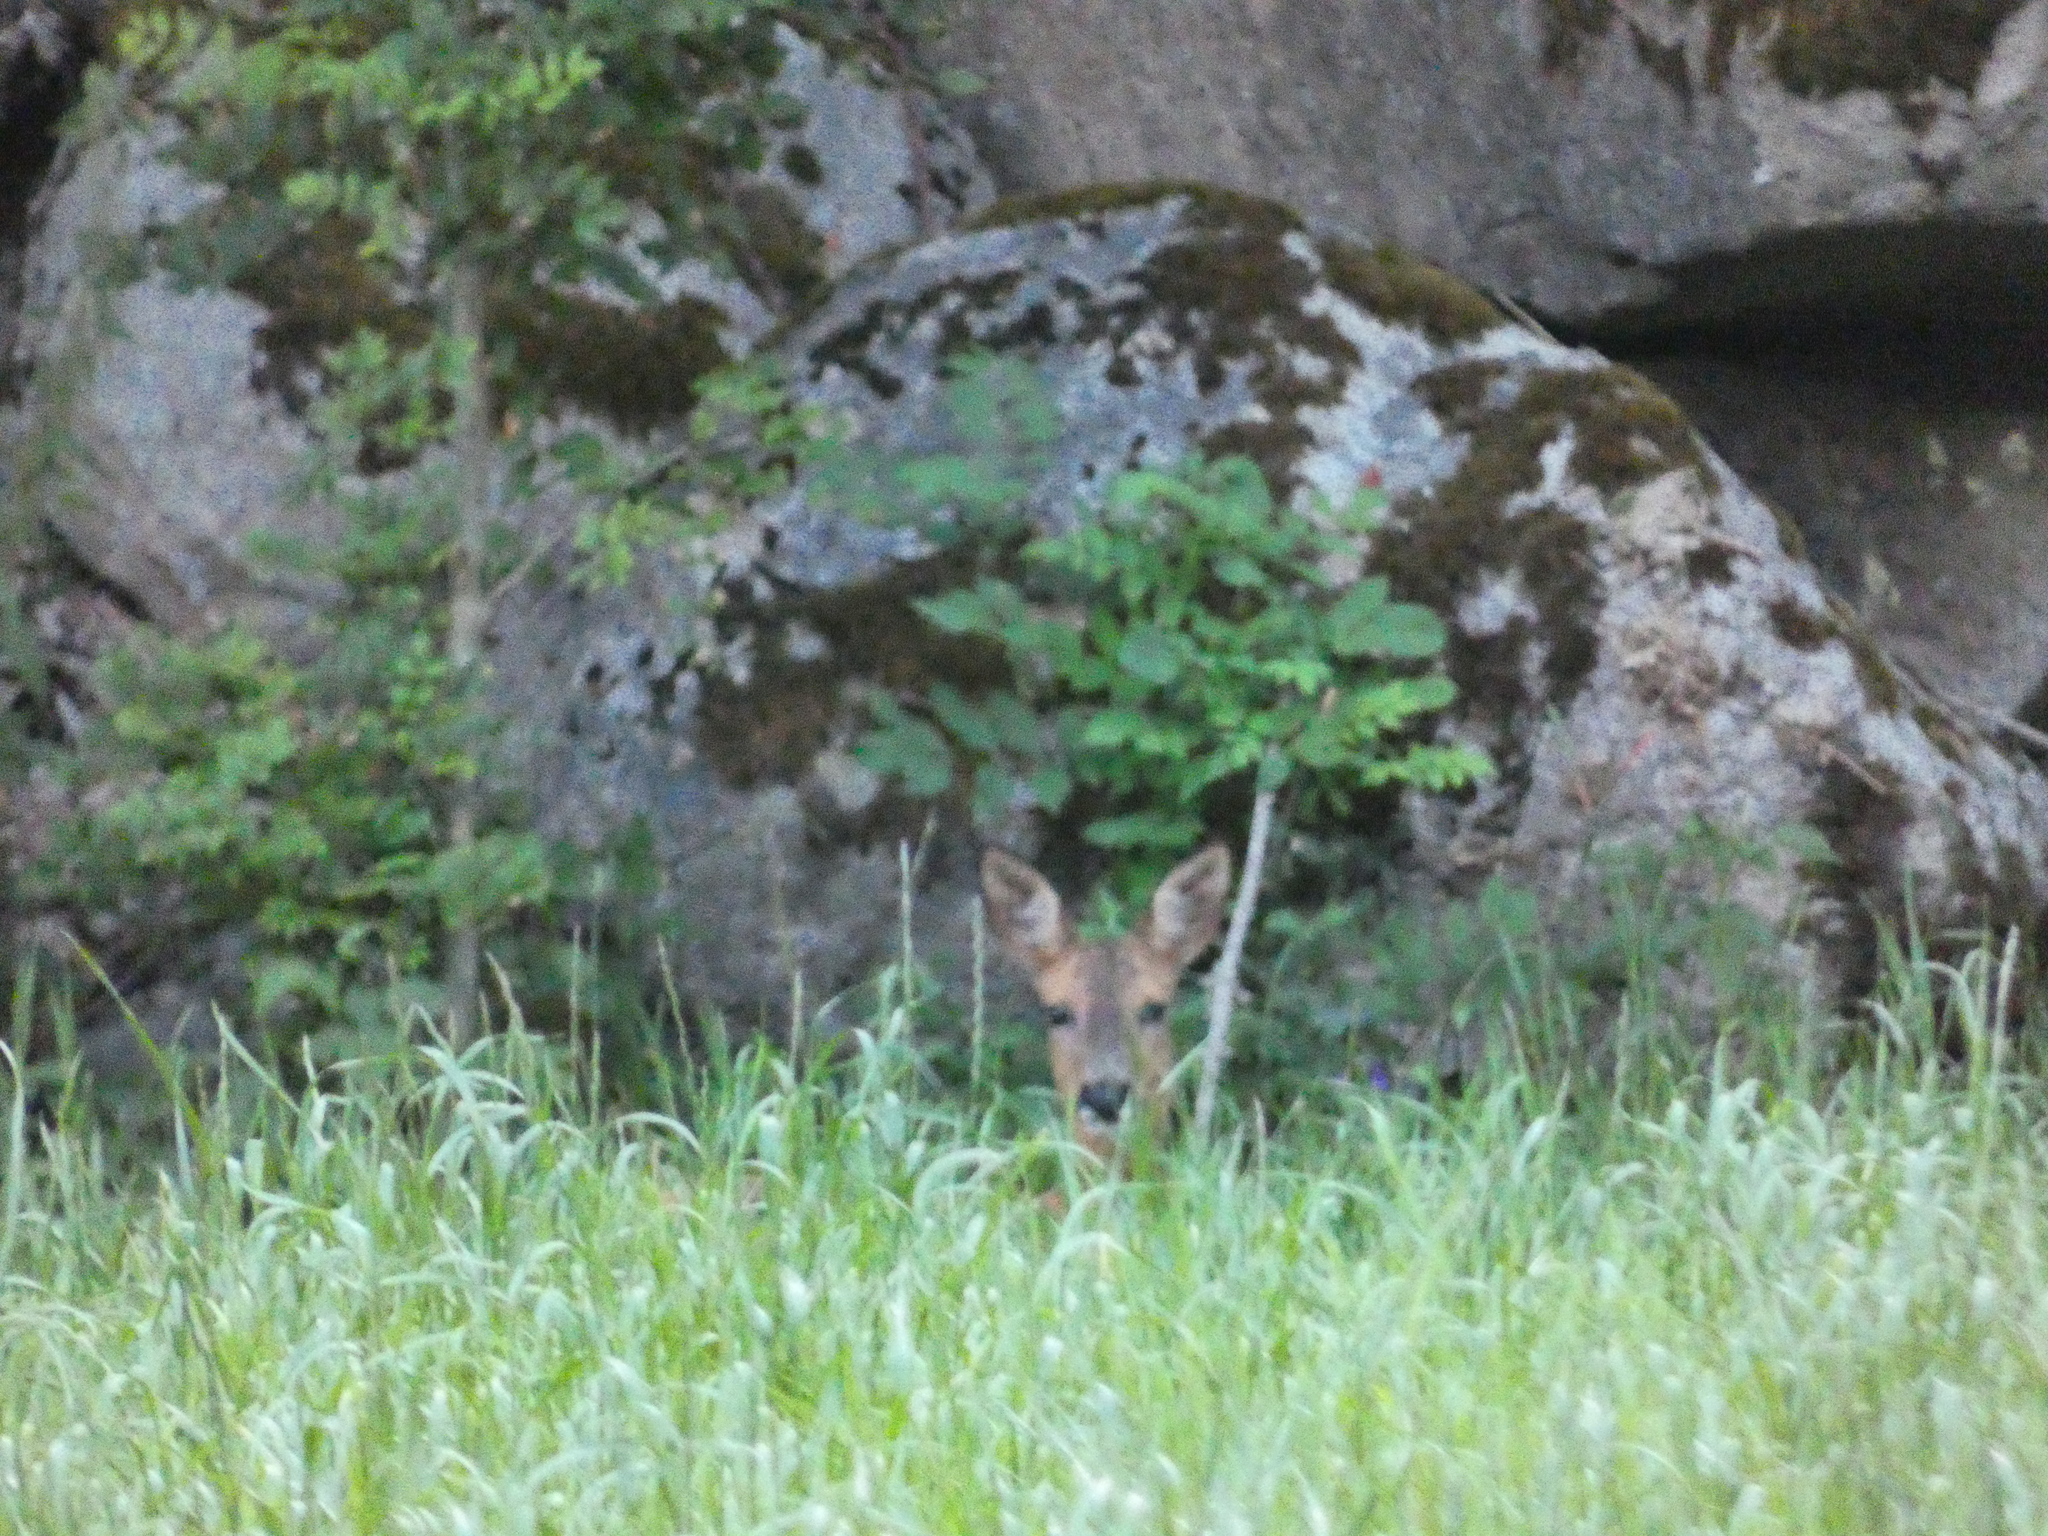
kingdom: Animalia
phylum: Chordata
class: Mammalia
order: Artiodactyla
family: Cervidae
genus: Capreolus
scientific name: Capreolus capreolus
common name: Western roe deer
